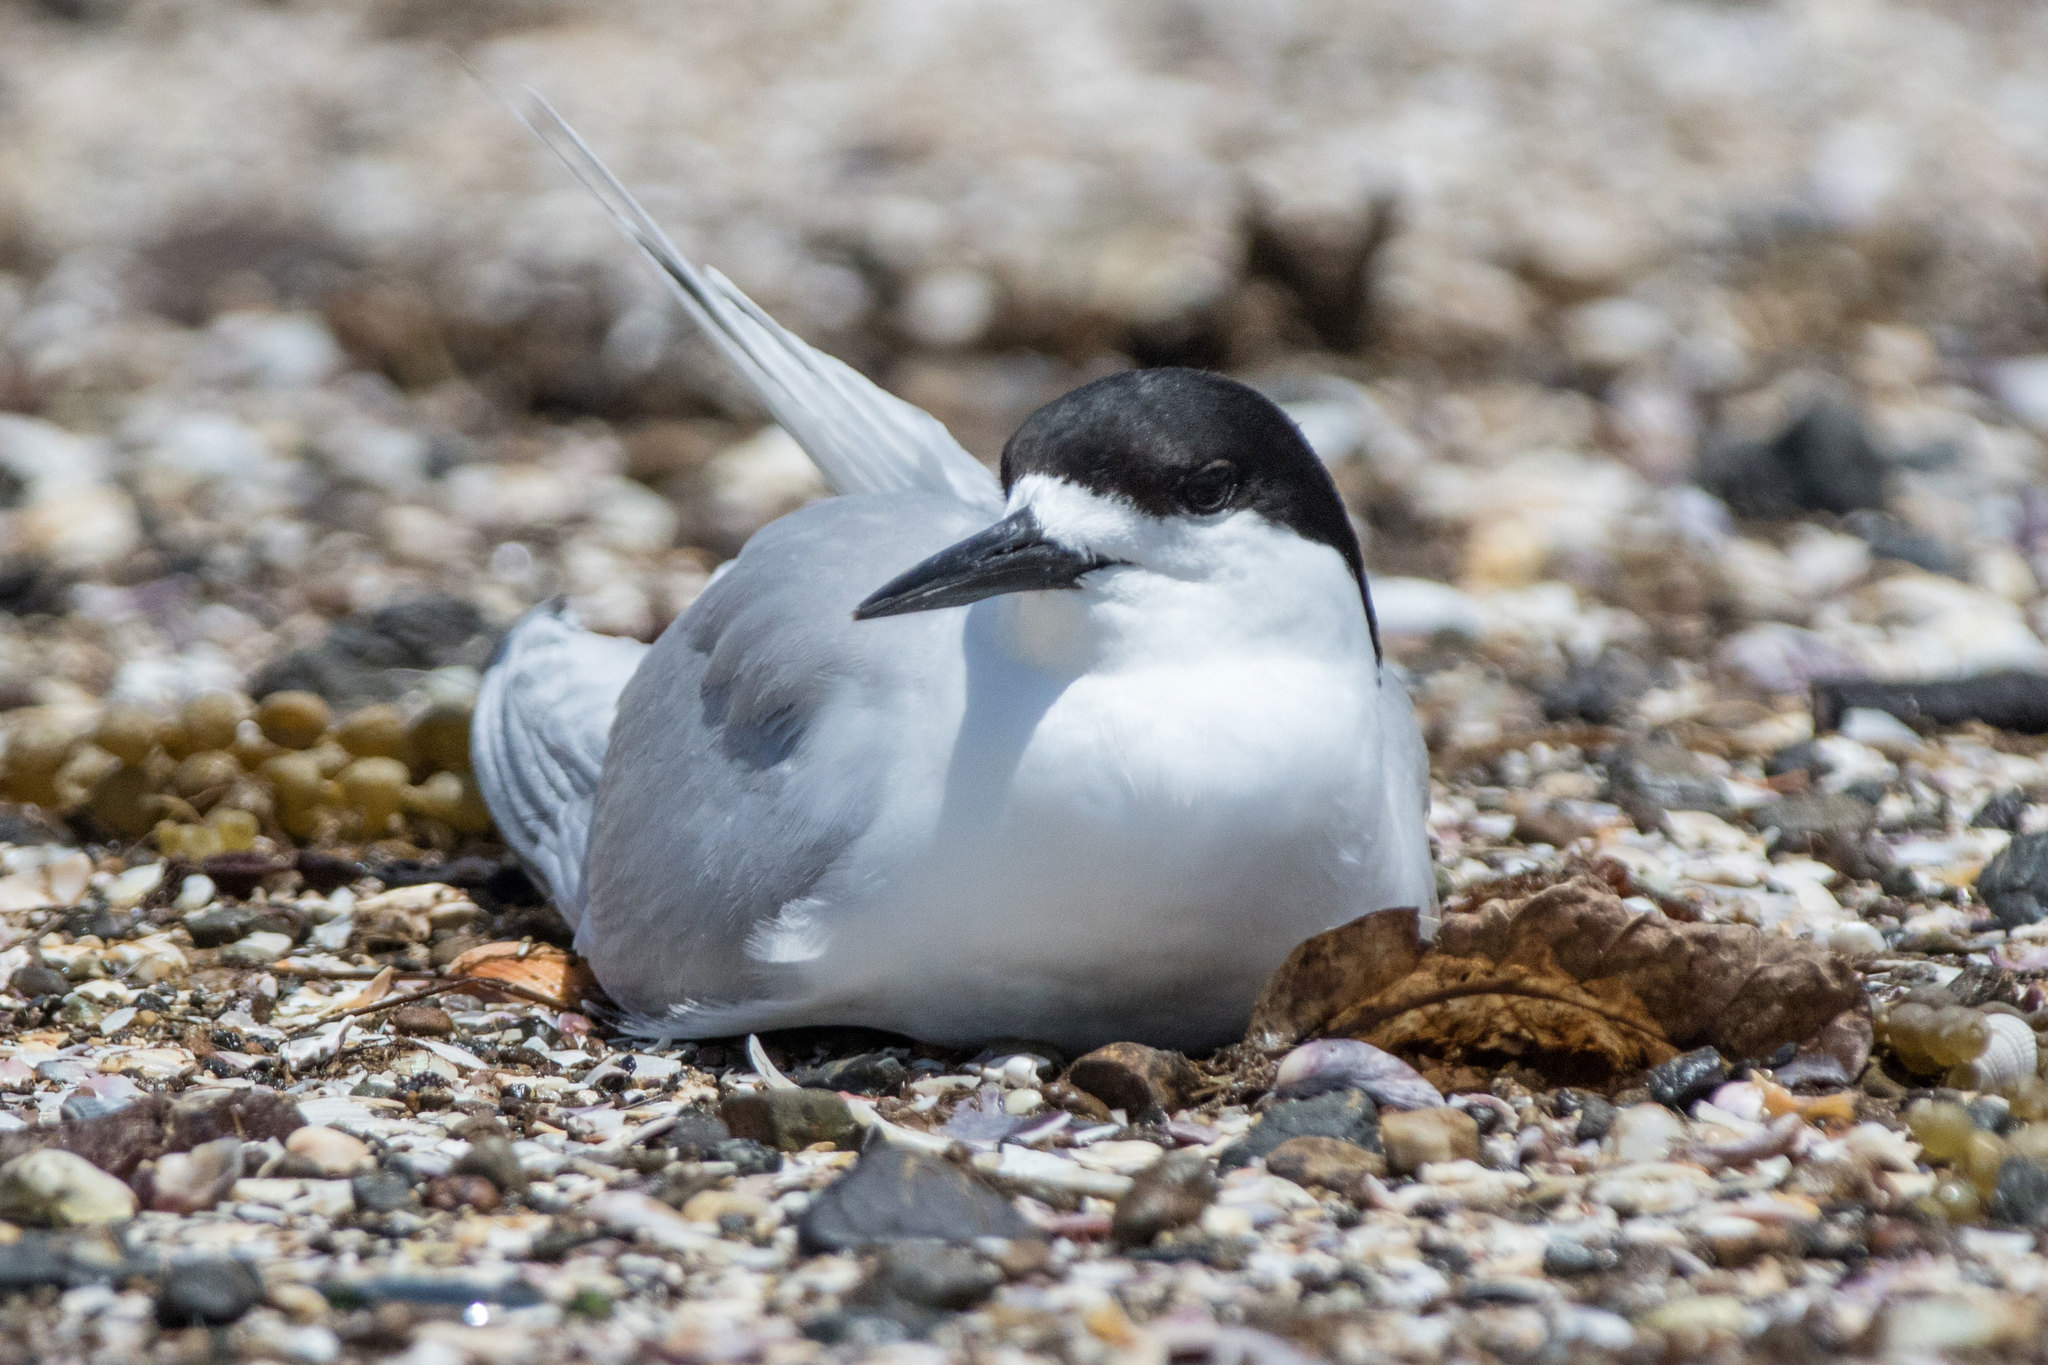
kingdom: Animalia
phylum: Chordata
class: Aves
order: Charadriiformes
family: Laridae
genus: Sterna
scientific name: Sterna striata
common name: White-fronted tern
